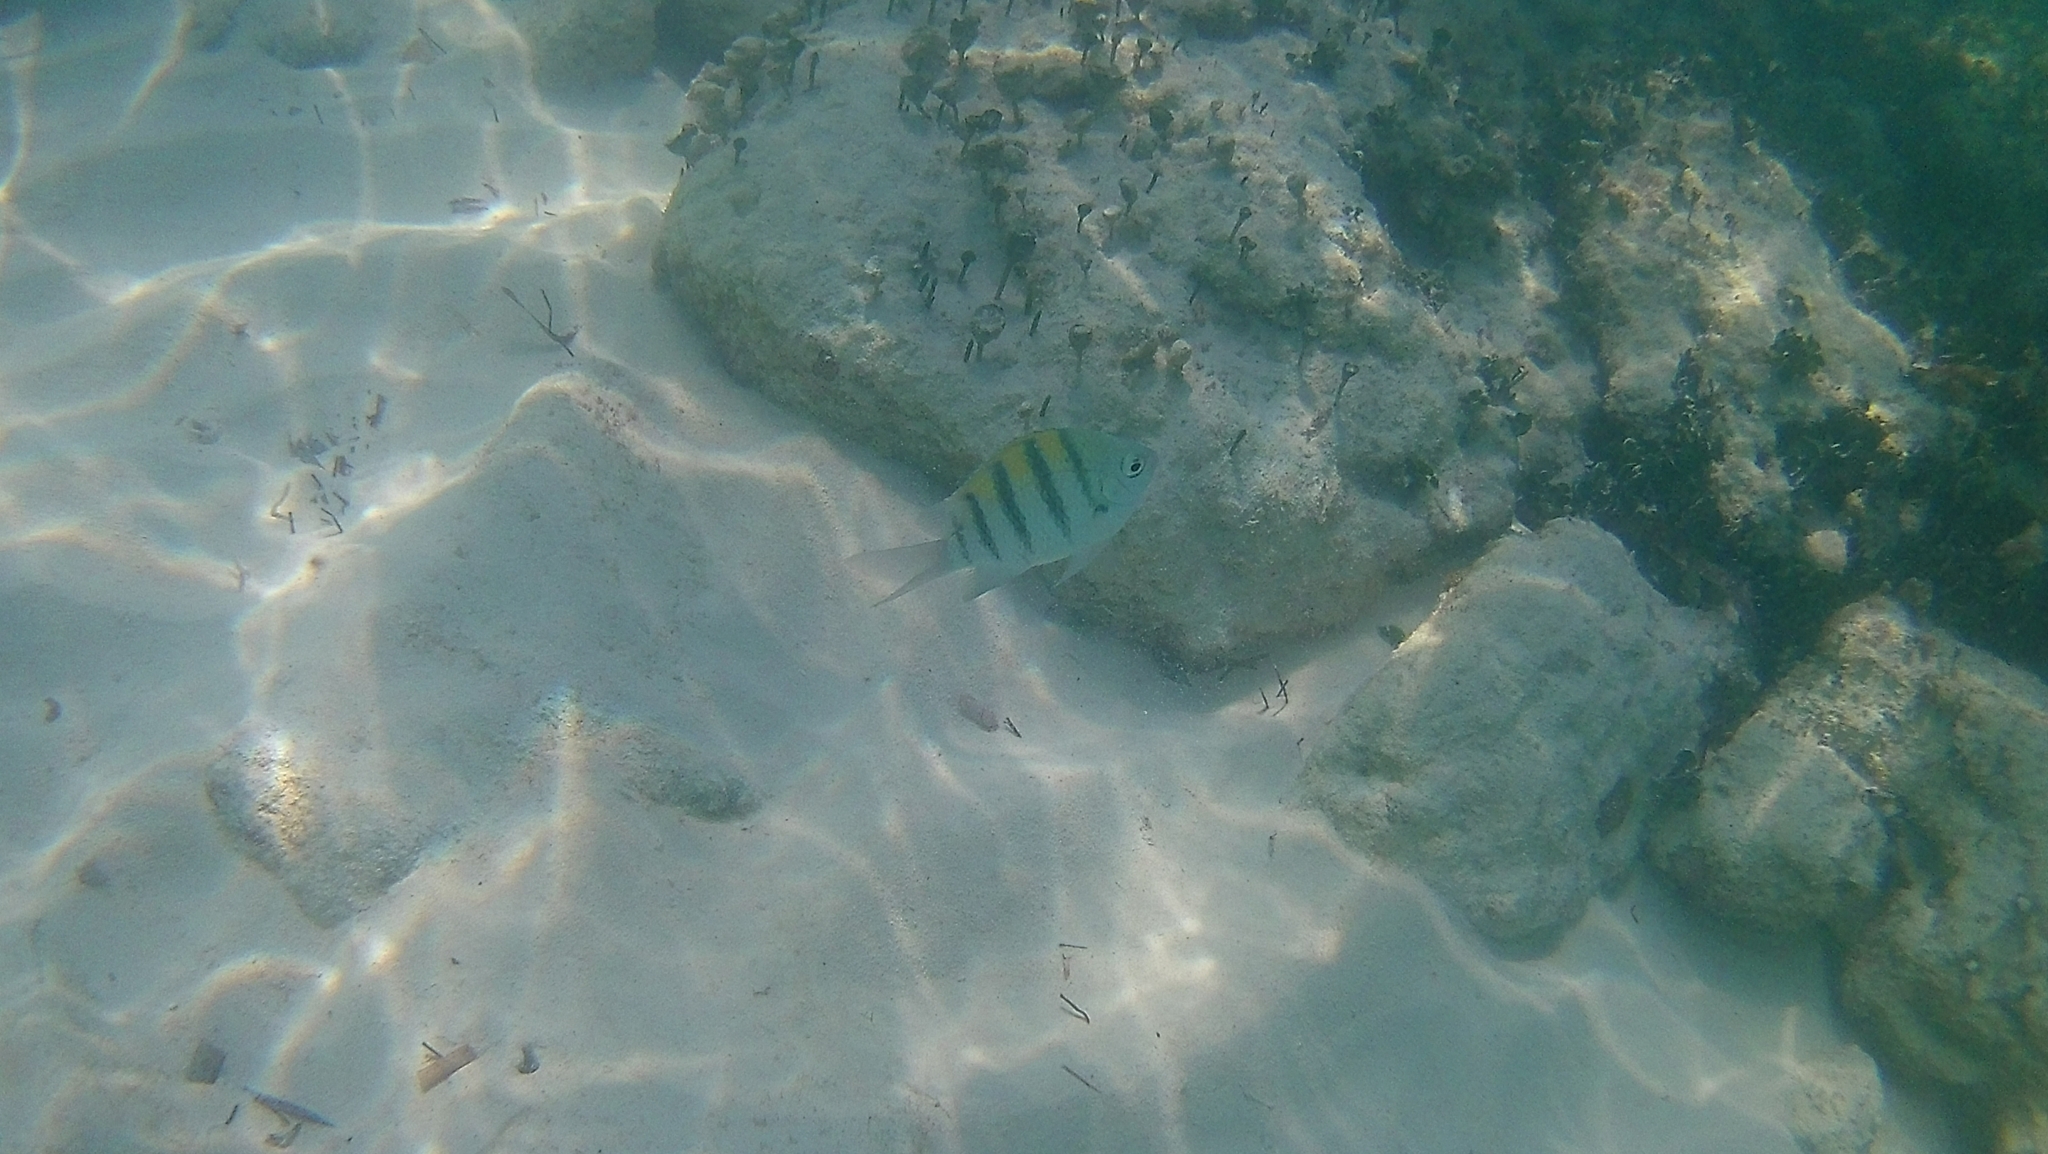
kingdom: Animalia
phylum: Chordata
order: Perciformes
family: Pomacentridae
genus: Abudefduf
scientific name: Abudefduf saxatilis
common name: Sergeant major
